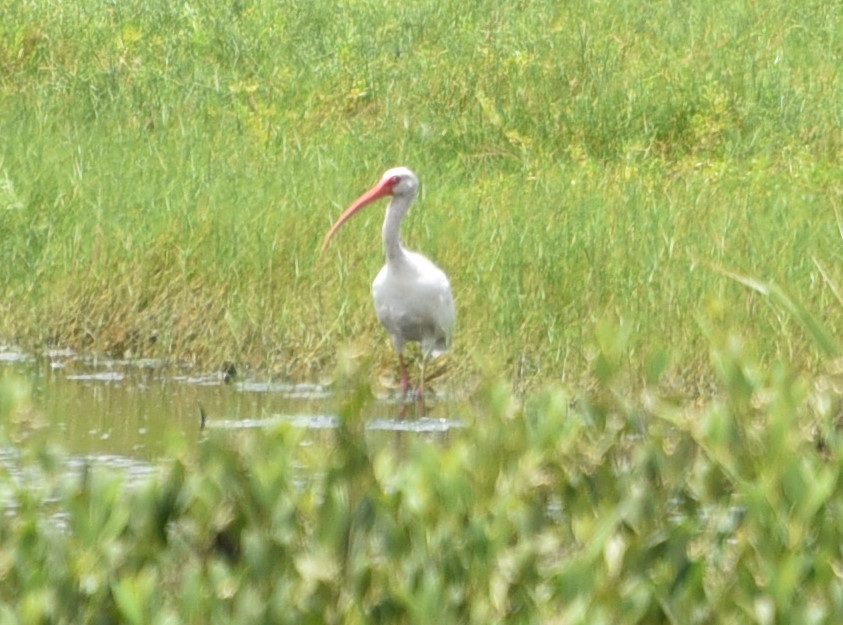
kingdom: Animalia
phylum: Chordata
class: Aves
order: Pelecaniformes
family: Threskiornithidae
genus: Eudocimus
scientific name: Eudocimus albus
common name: White ibis
